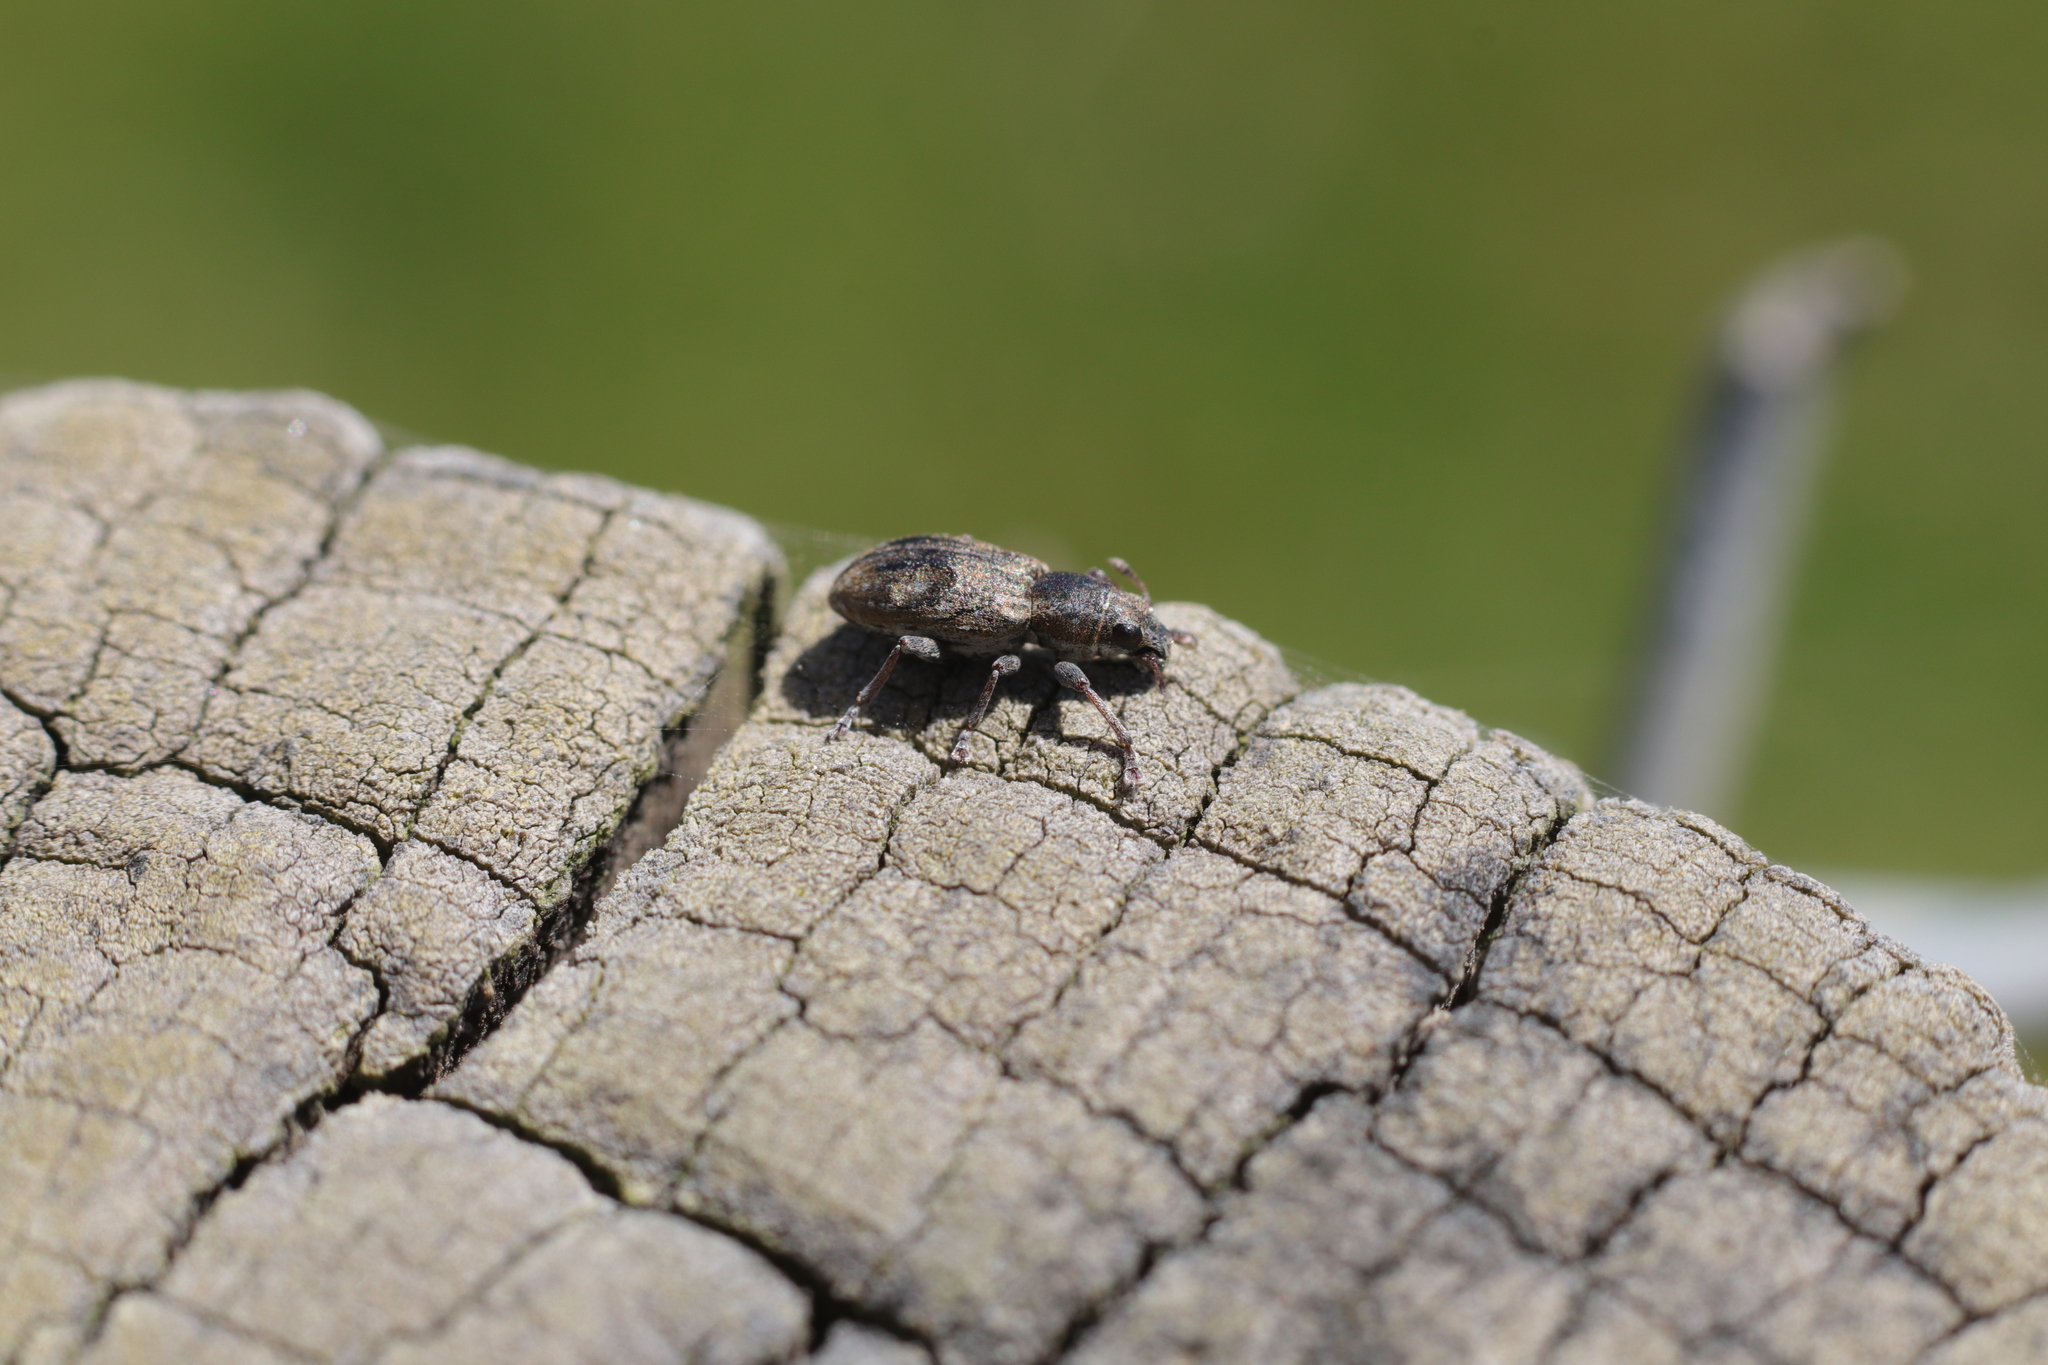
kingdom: Animalia
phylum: Arthropoda
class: Insecta
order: Coleoptera
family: Curculionidae
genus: Sitona
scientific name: Sitona obsoletus
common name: Weevil
